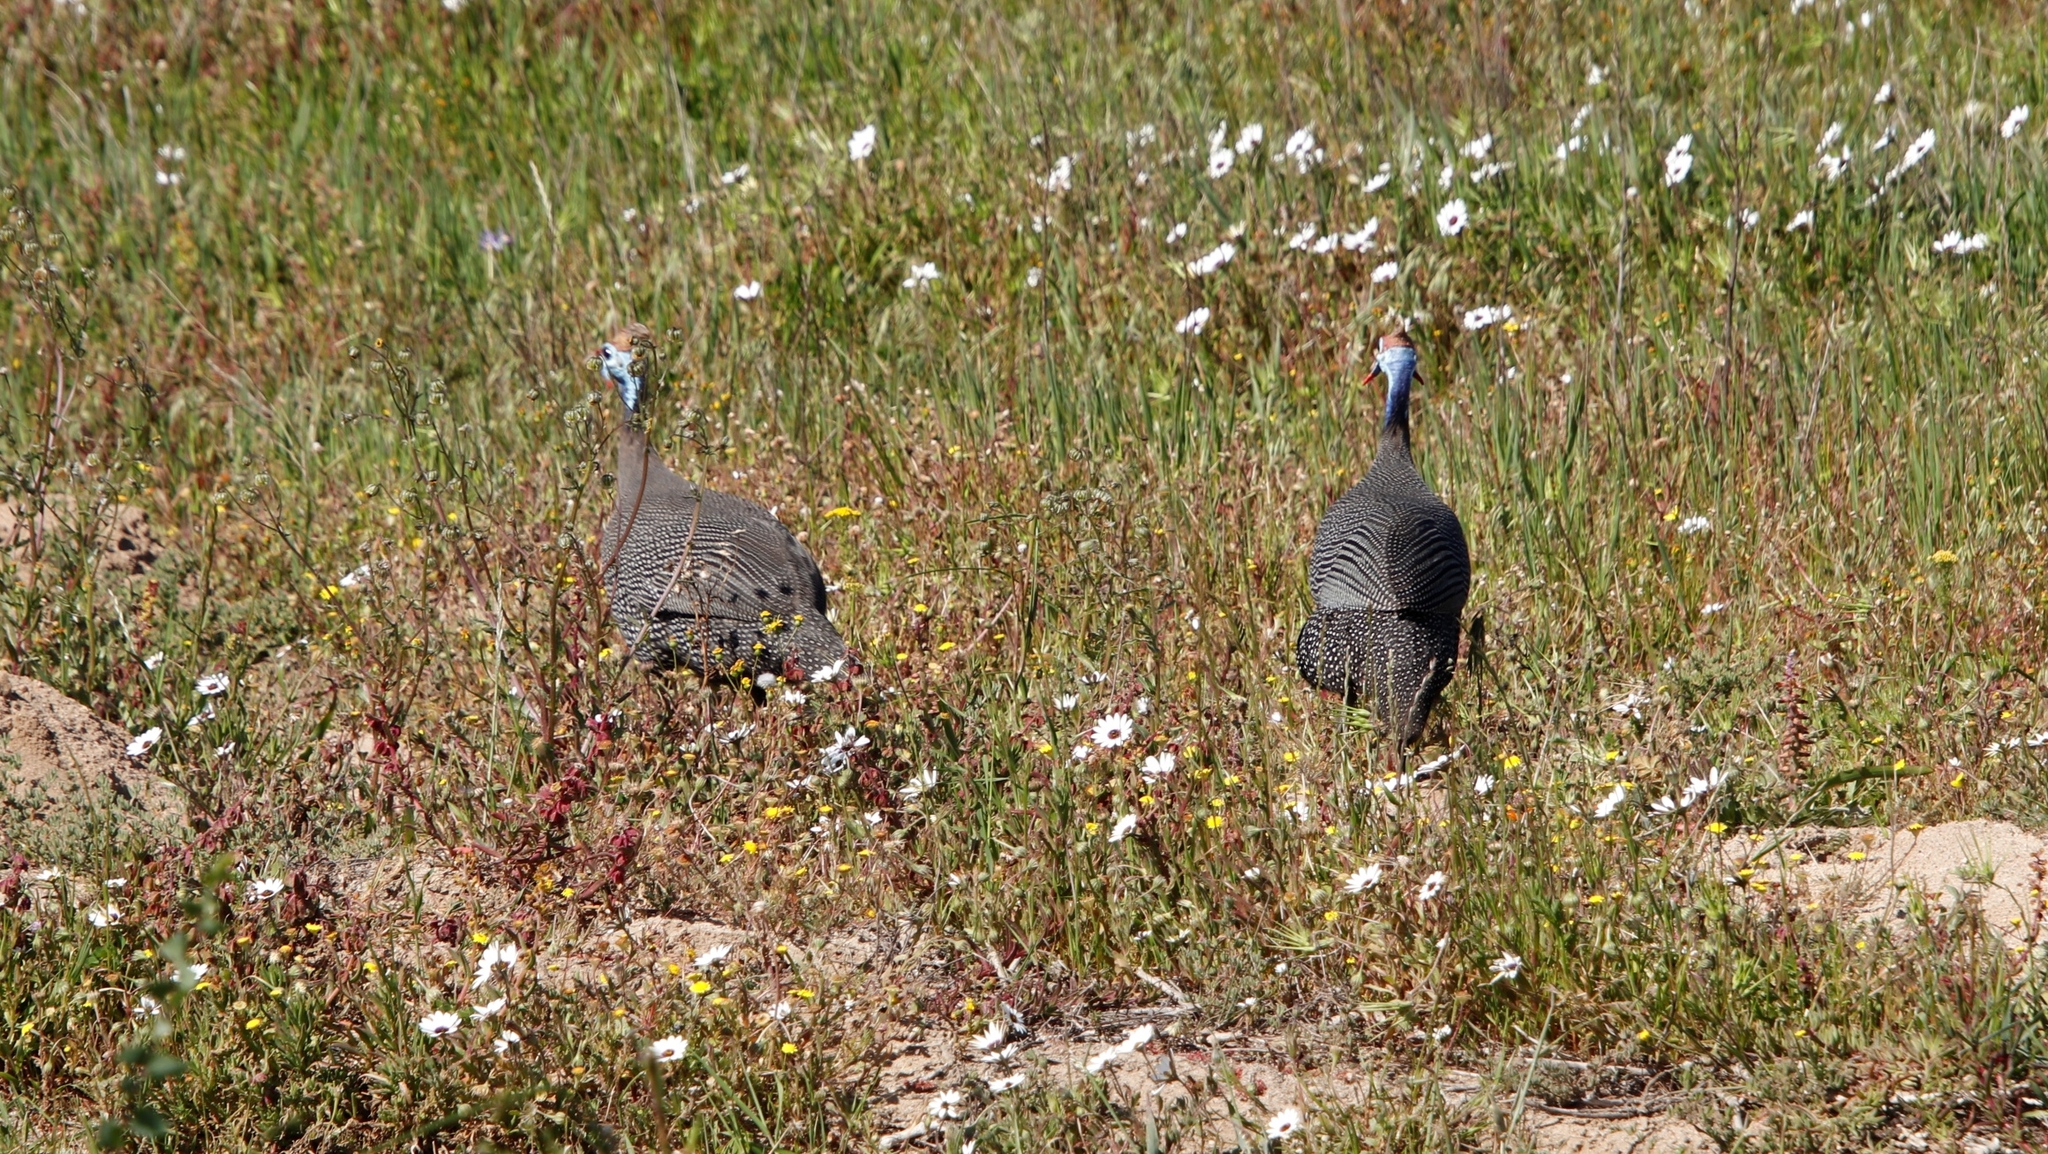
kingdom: Animalia
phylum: Chordata
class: Aves
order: Galliformes
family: Numididae
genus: Numida
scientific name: Numida meleagris
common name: Helmeted guineafowl
